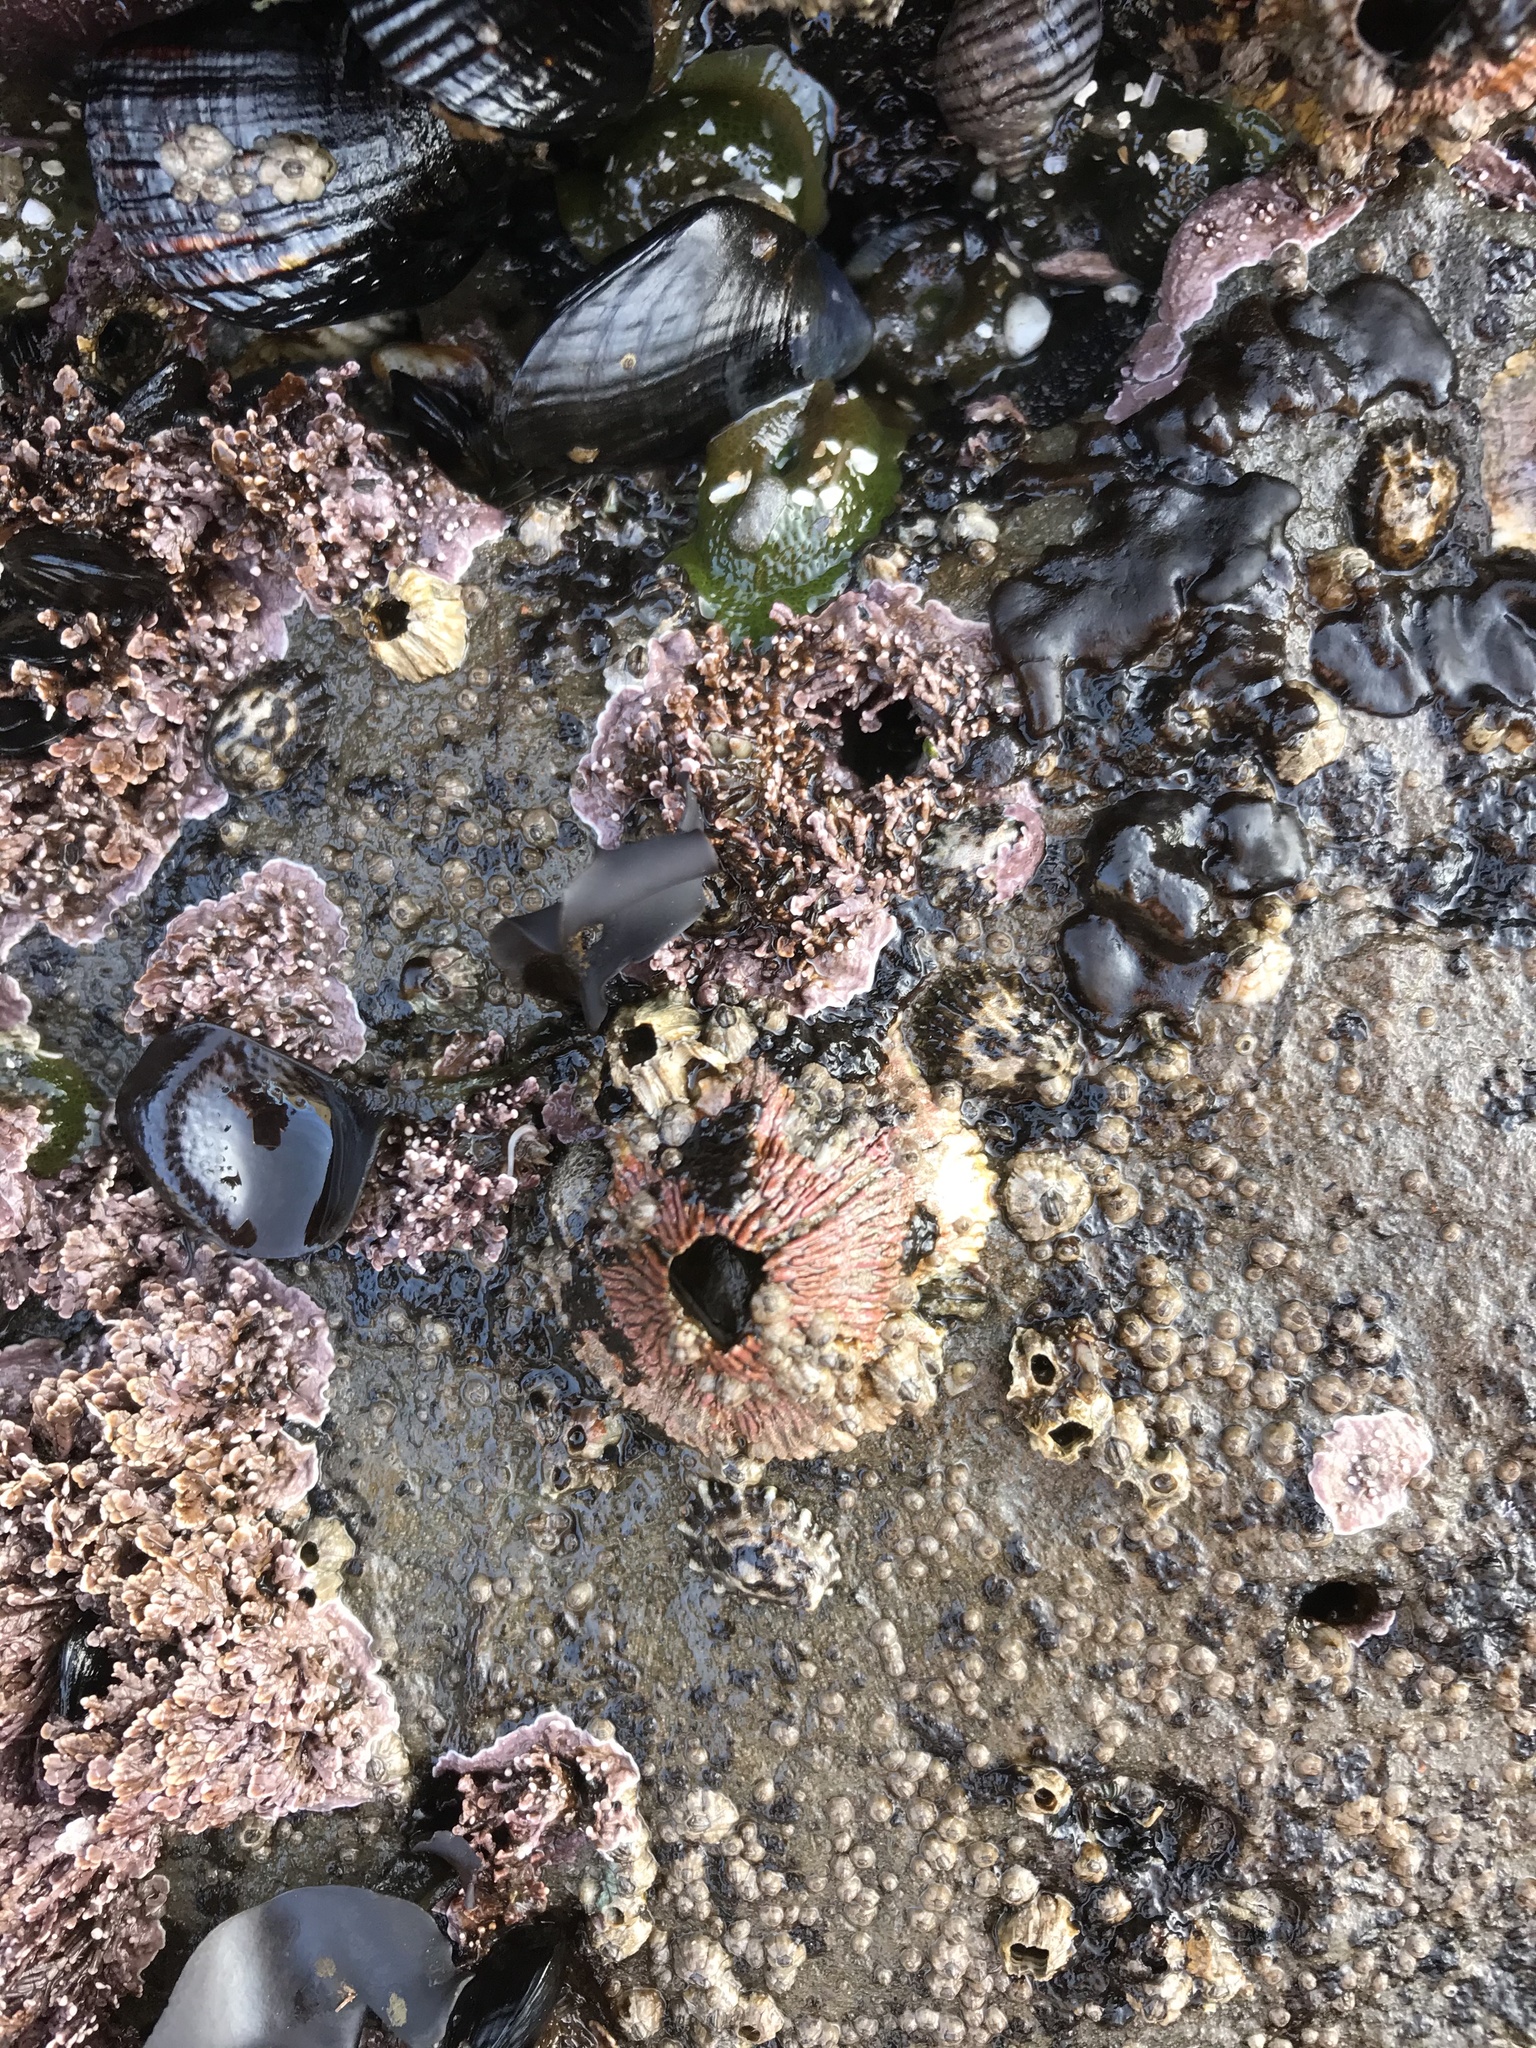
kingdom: Animalia
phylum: Arthropoda
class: Maxillopoda
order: Sessilia
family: Tetraclitidae
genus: Tetraclita
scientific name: Tetraclita rubescens
